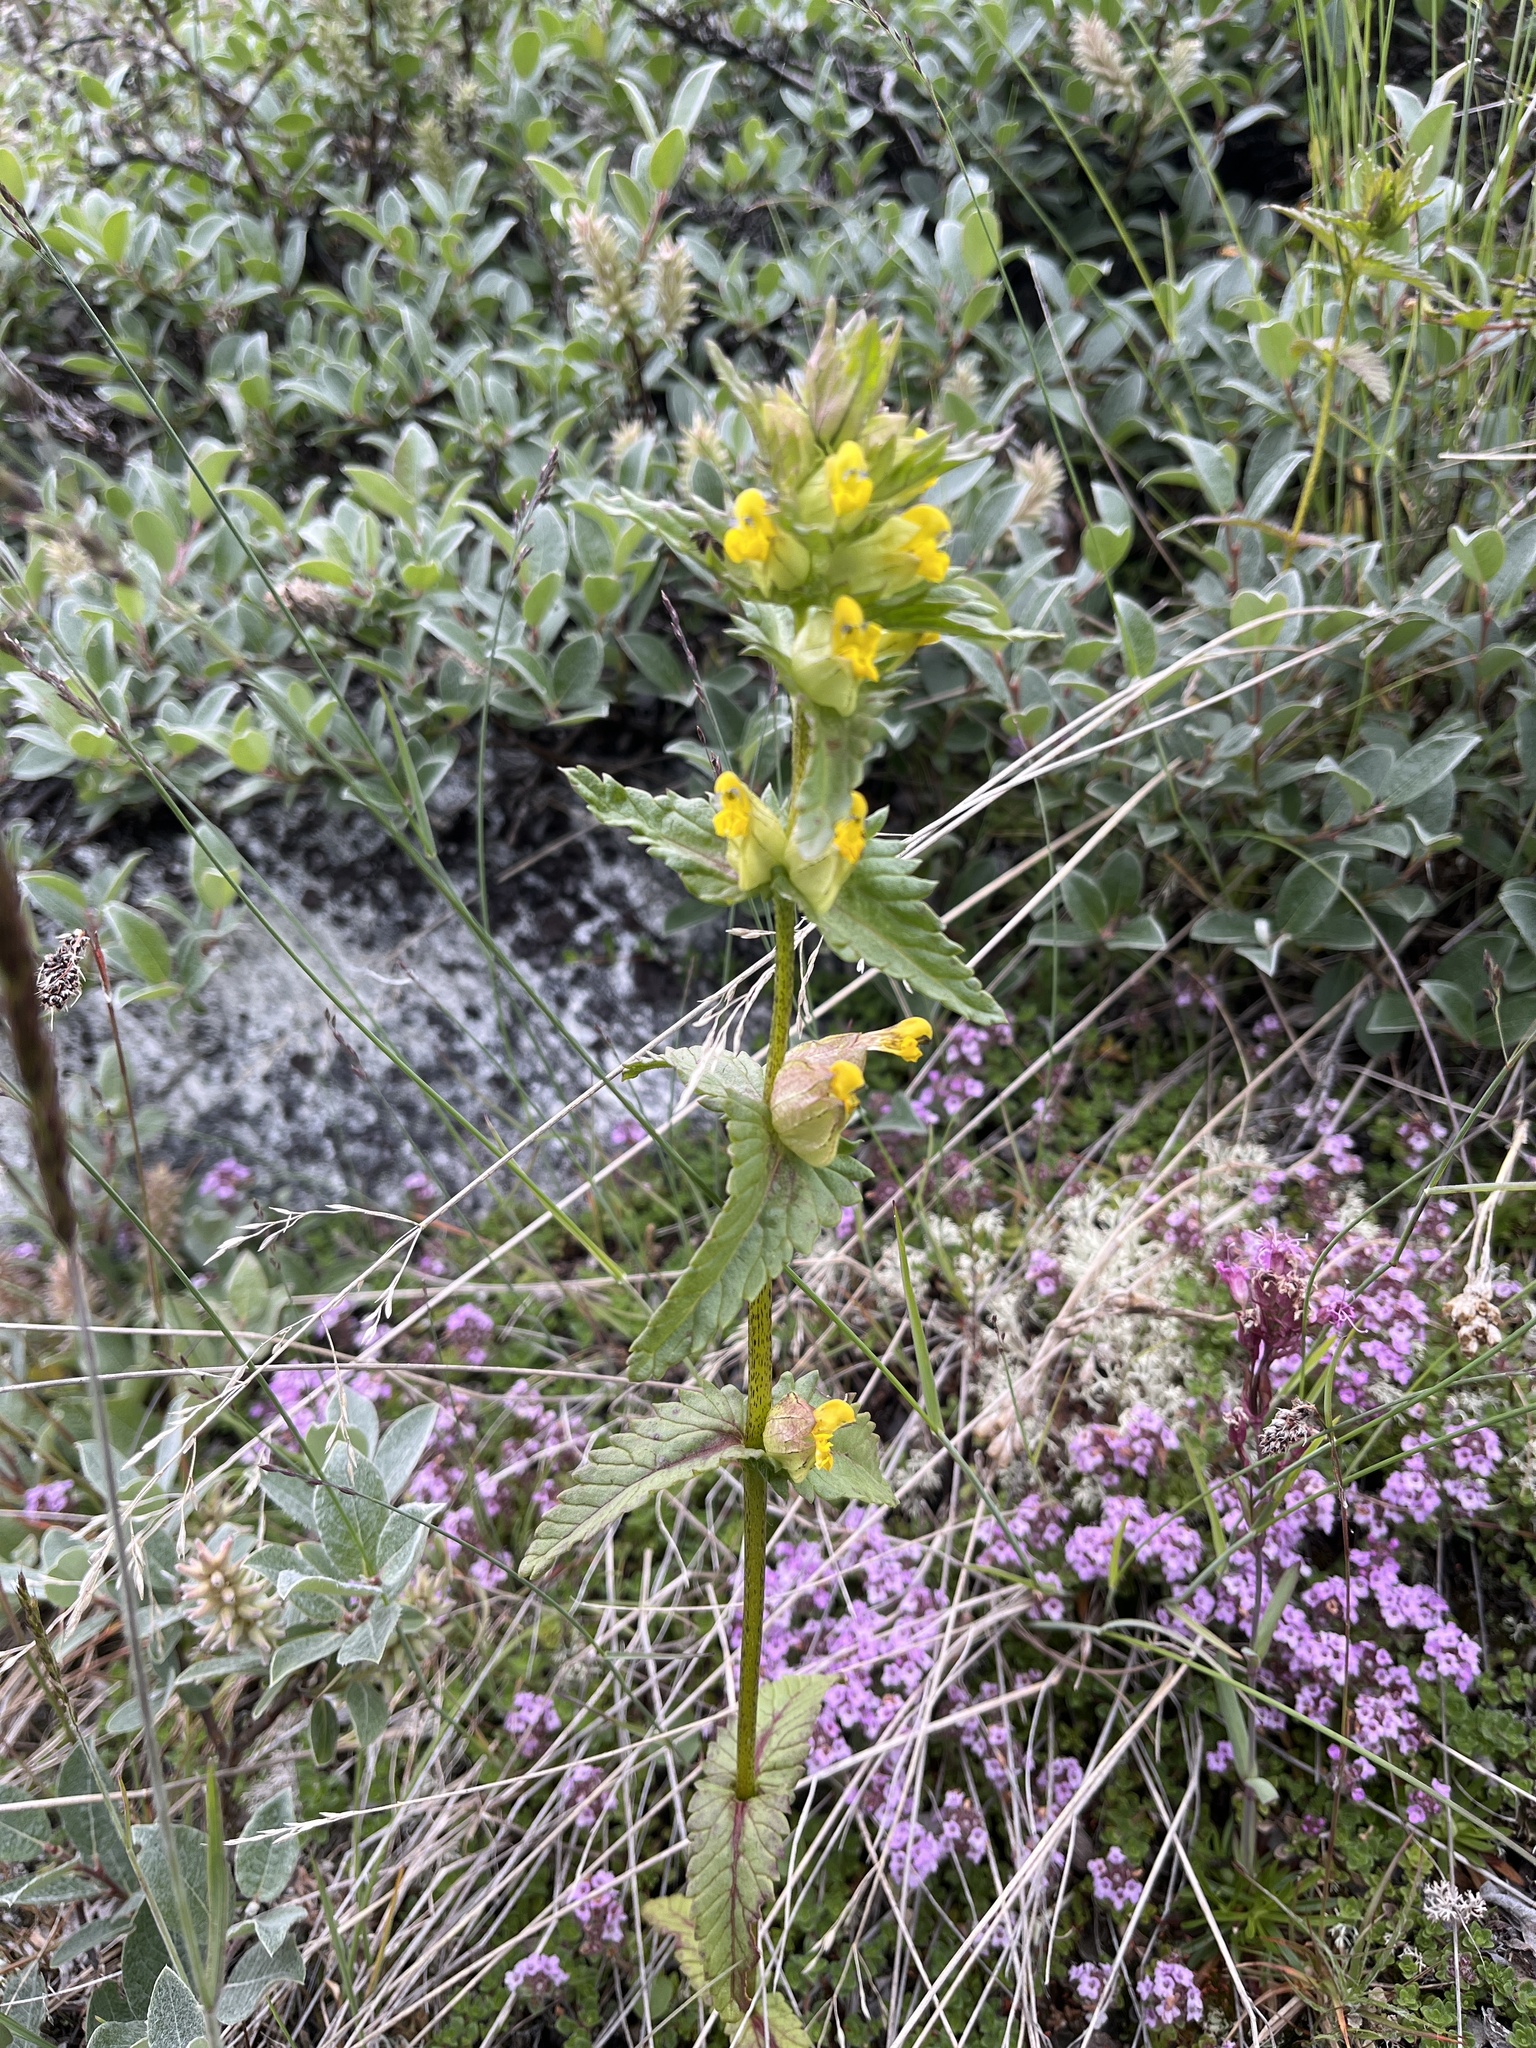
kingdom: Plantae
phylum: Tracheophyta
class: Magnoliopsida
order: Lamiales
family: Orobanchaceae
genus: Rhinanthus
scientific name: Rhinanthus minor
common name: Yellow-rattle
